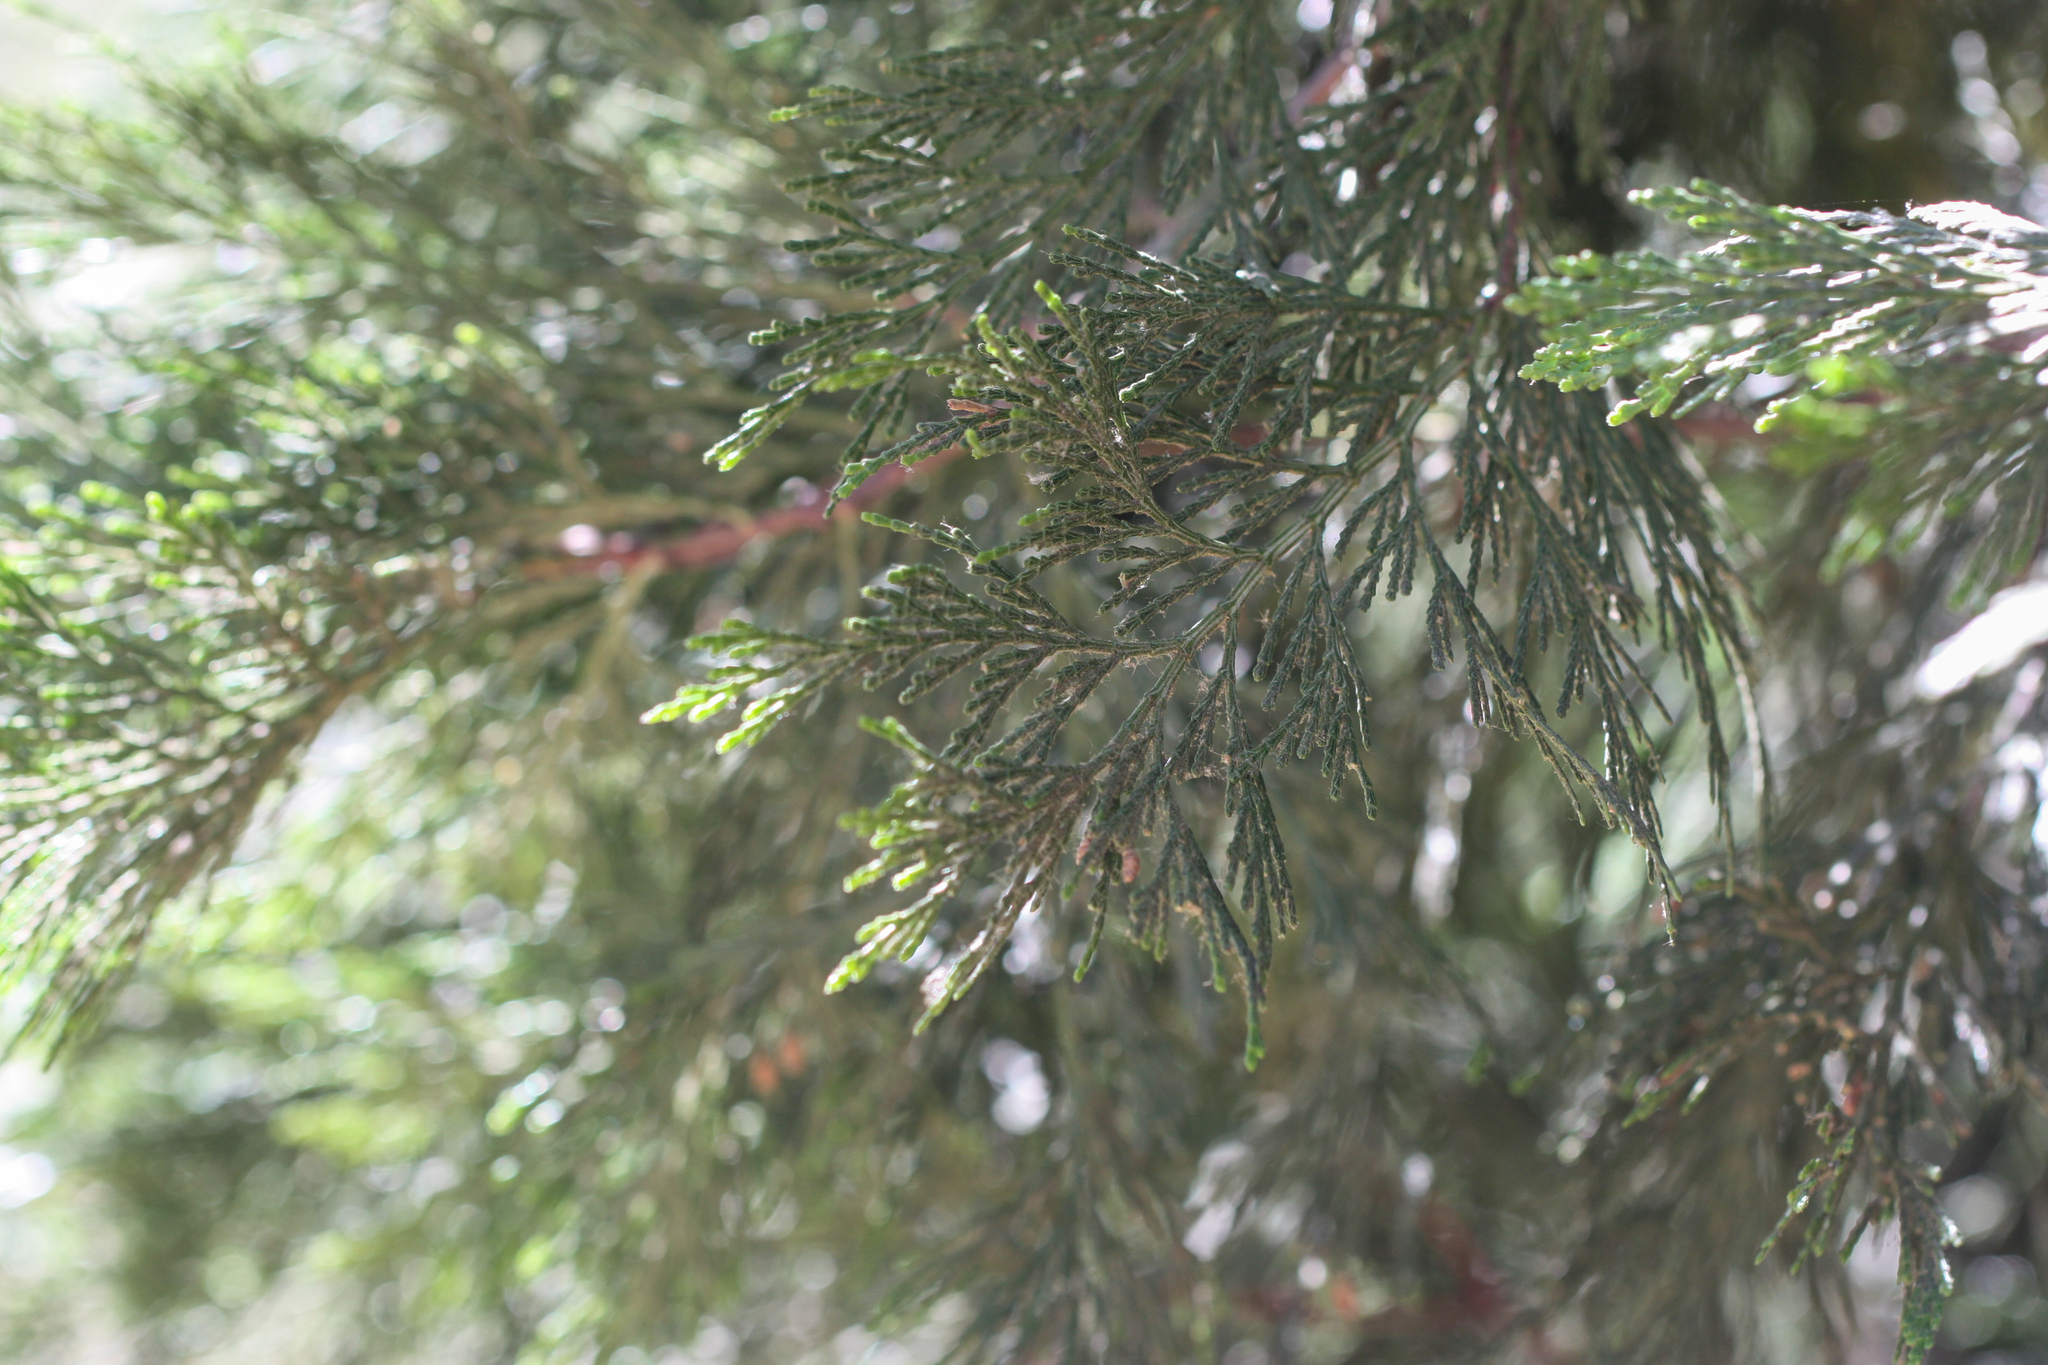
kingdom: Plantae
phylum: Tracheophyta
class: Pinopsida
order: Pinales
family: Cupressaceae
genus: Calocedrus
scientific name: Calocedrus decurrens
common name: Californian incense-cedar
